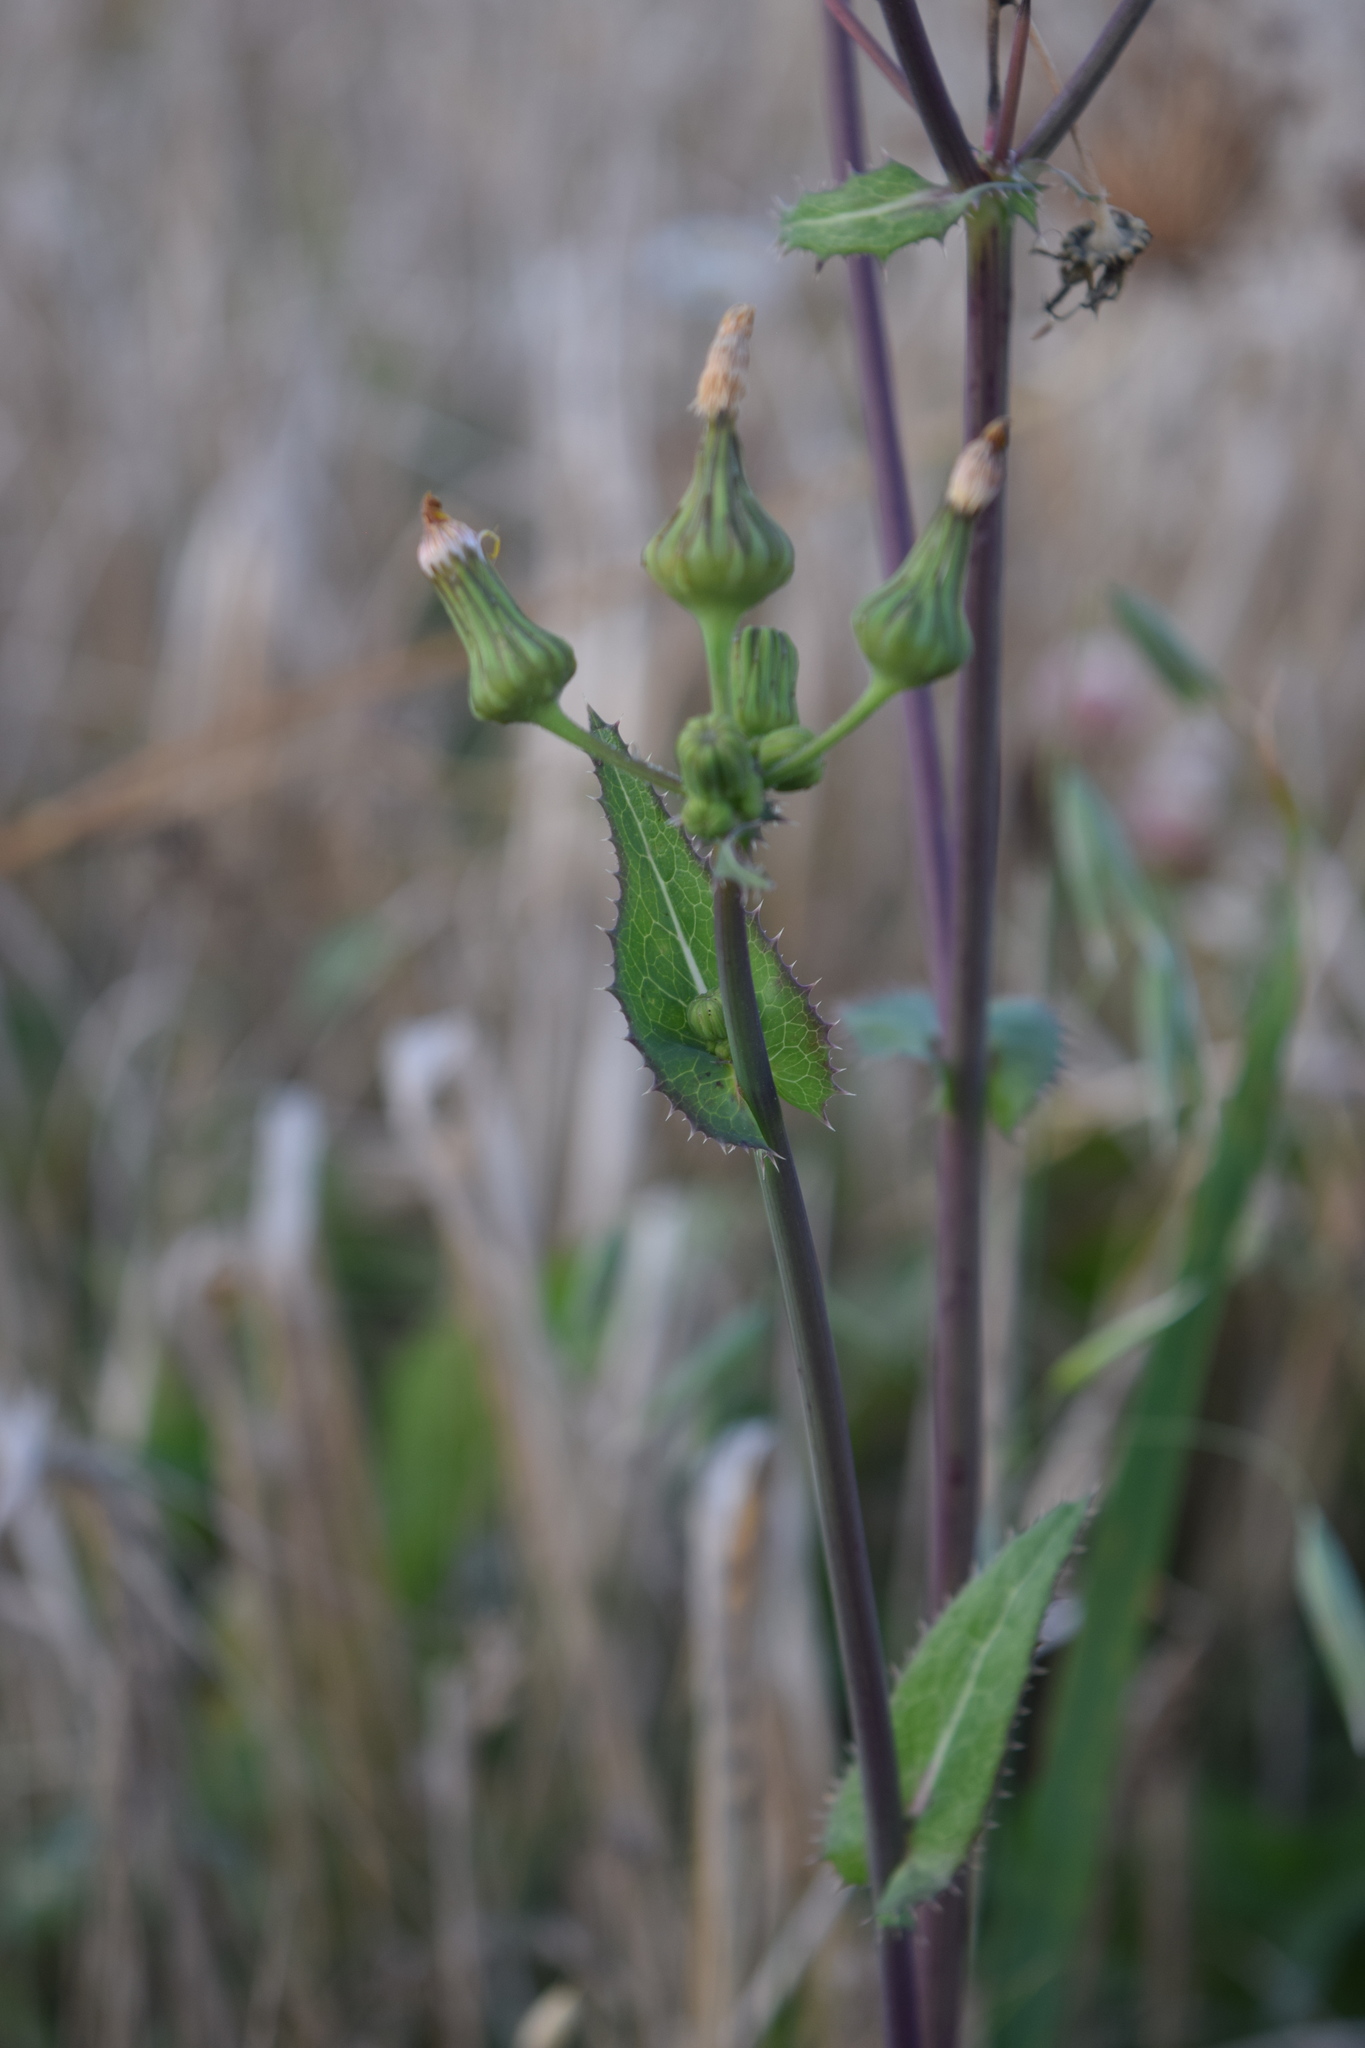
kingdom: Plantae
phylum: Tracheophyta
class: Magnoliopsida
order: Asterales
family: Asteraceae
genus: Sonchus
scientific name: Sonchus oleraceus
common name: Common sowthistle
